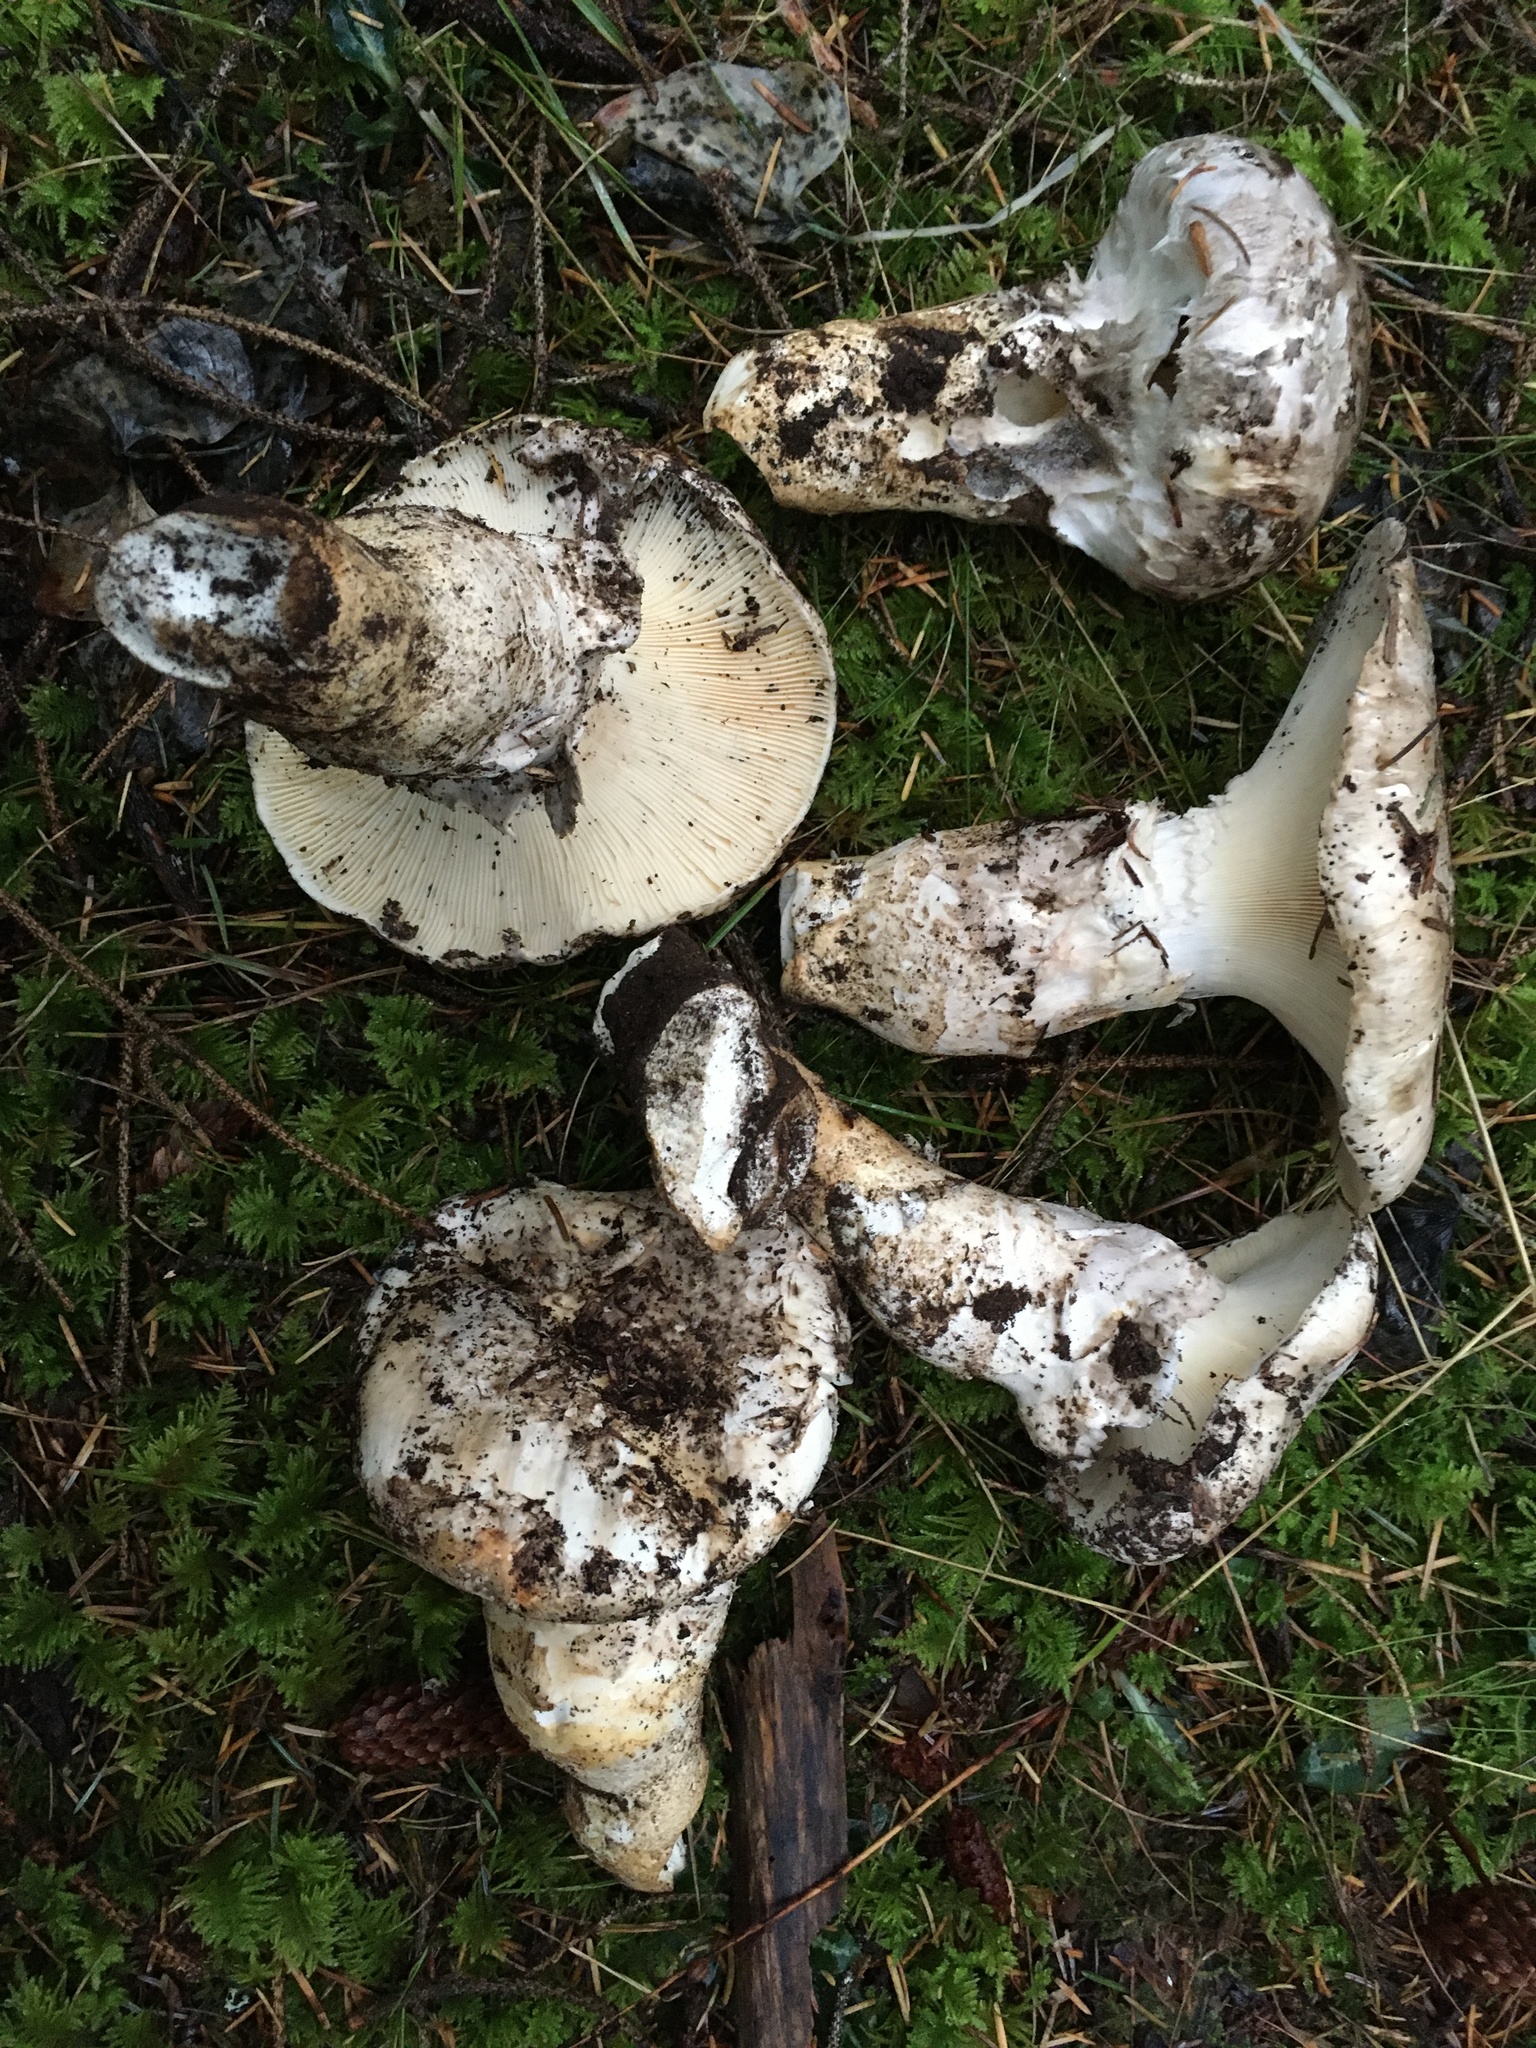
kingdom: Fungi
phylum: Basidiomycota
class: Agaricomycetes
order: Agaricales
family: Biannulariaceae
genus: Catathelasma
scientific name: Catathelasma ventricosum
